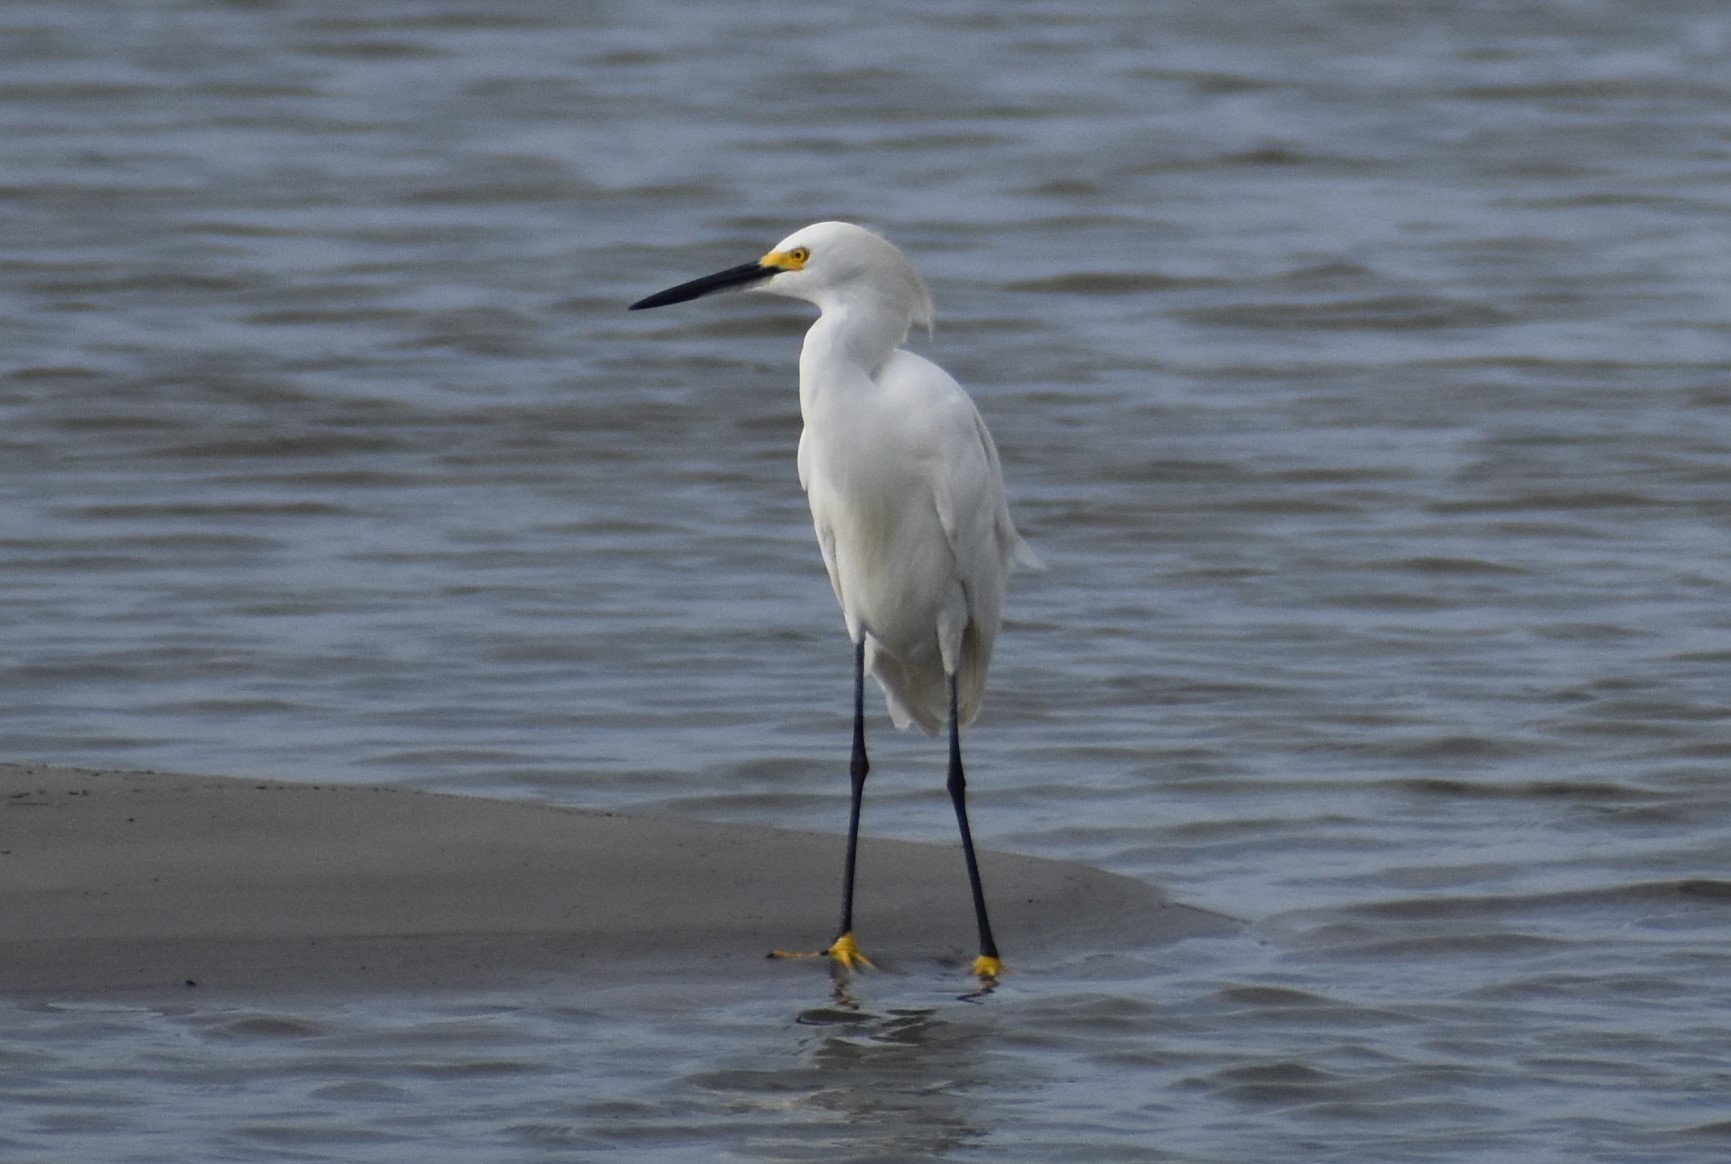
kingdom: Animalia
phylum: Chordata
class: Aves
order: Pelecaniformes
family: Ardeidae
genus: Egretta
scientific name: Egretta thula
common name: Snowy egret
